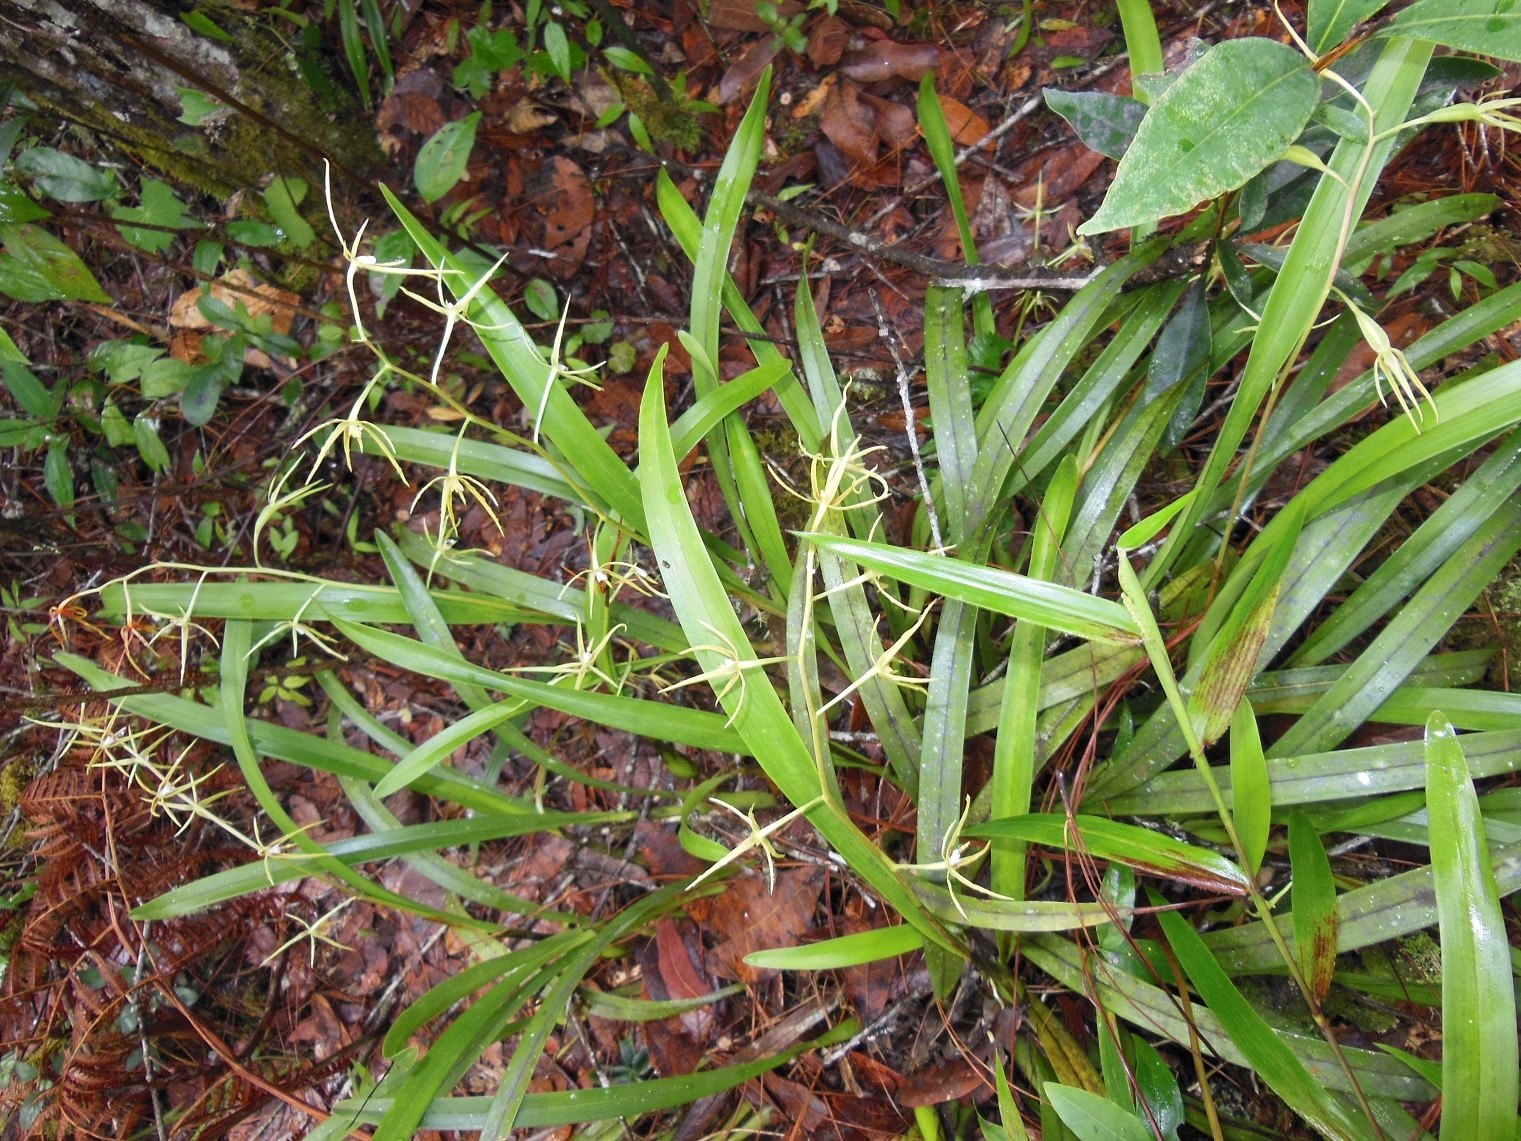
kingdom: Plantae
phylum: Tracheophyta
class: Liliopsida
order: Asparagales
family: Orchidaceae
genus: Prosthechea
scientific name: Prosthechea rhynchophora
